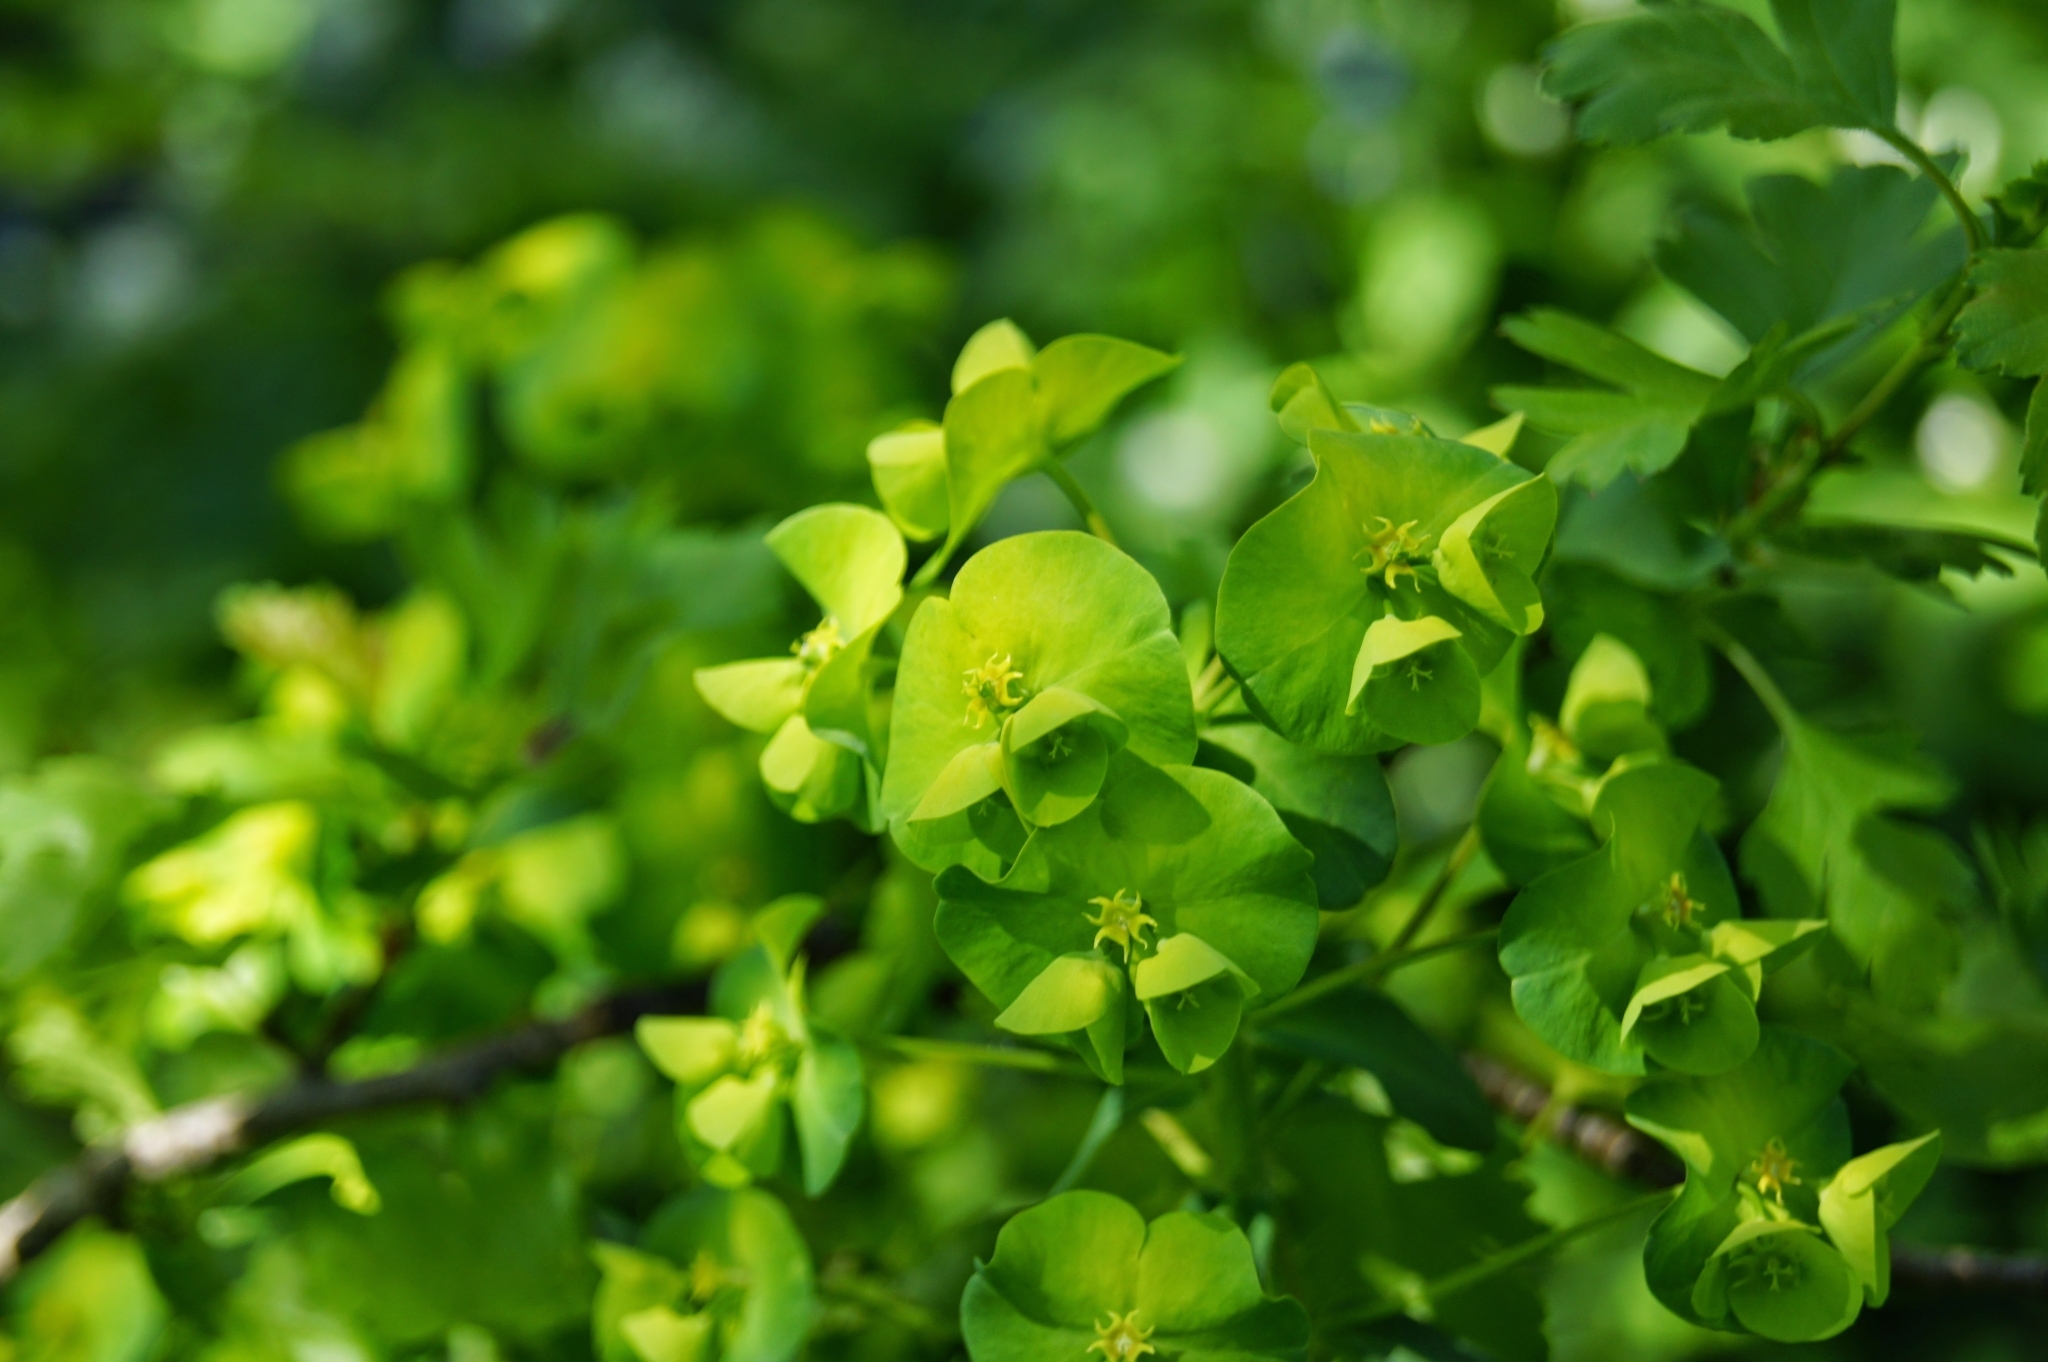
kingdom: Plantae
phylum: Tracheophyta
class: Magnoliopsida
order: Malpighiales
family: Euphorbiaceae
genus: Euphorbia
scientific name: Euphorbia amygdaloides
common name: Wood spurge
